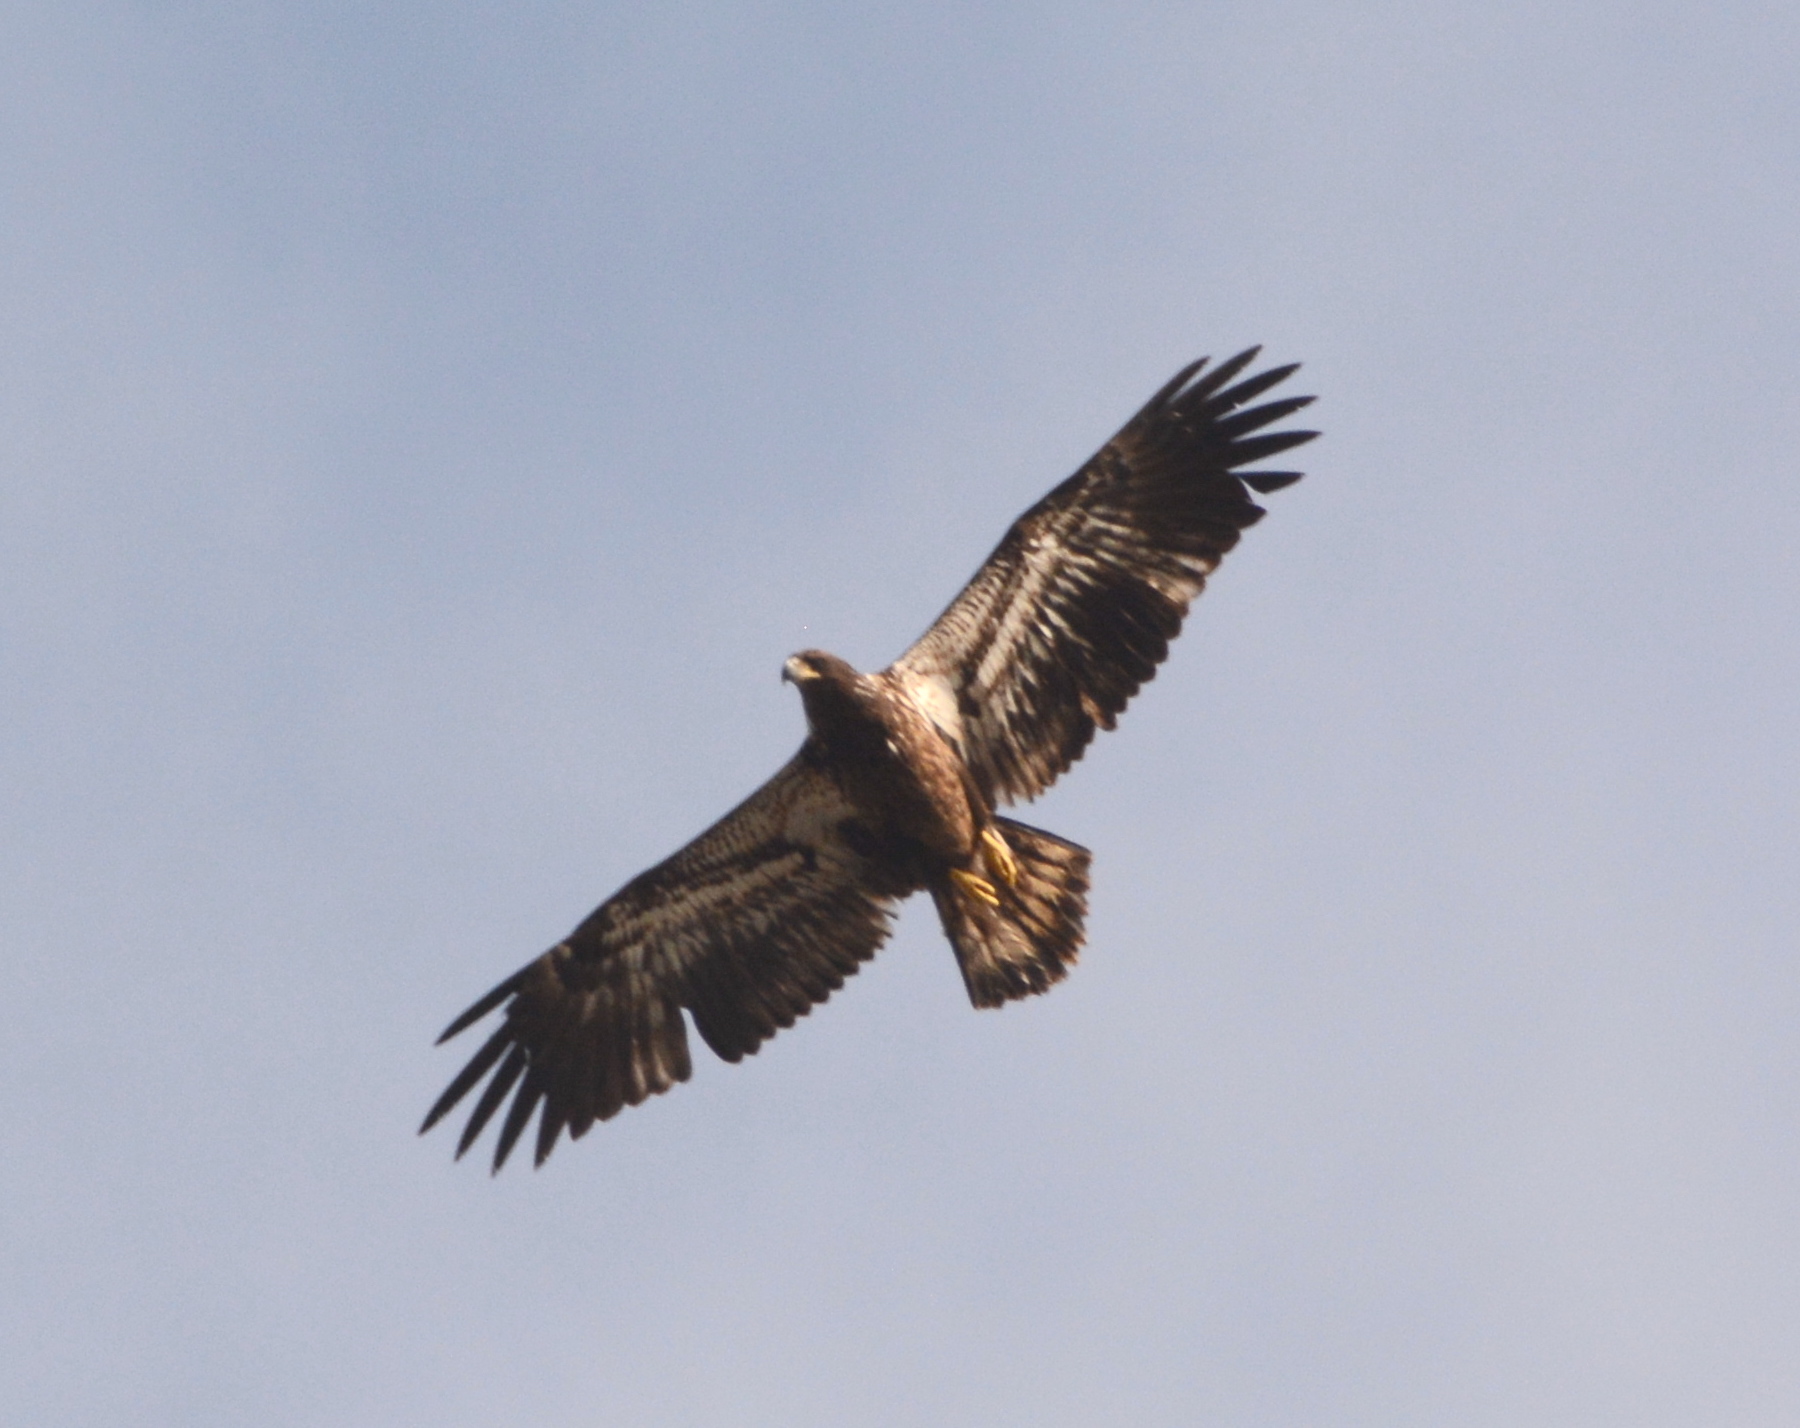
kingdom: Animalia
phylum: Chordata
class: Aves
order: Accipitriformes
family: Accipitridae
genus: Haliaeetus
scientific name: Haliaeetus leucocephalus
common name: Bald eagle
